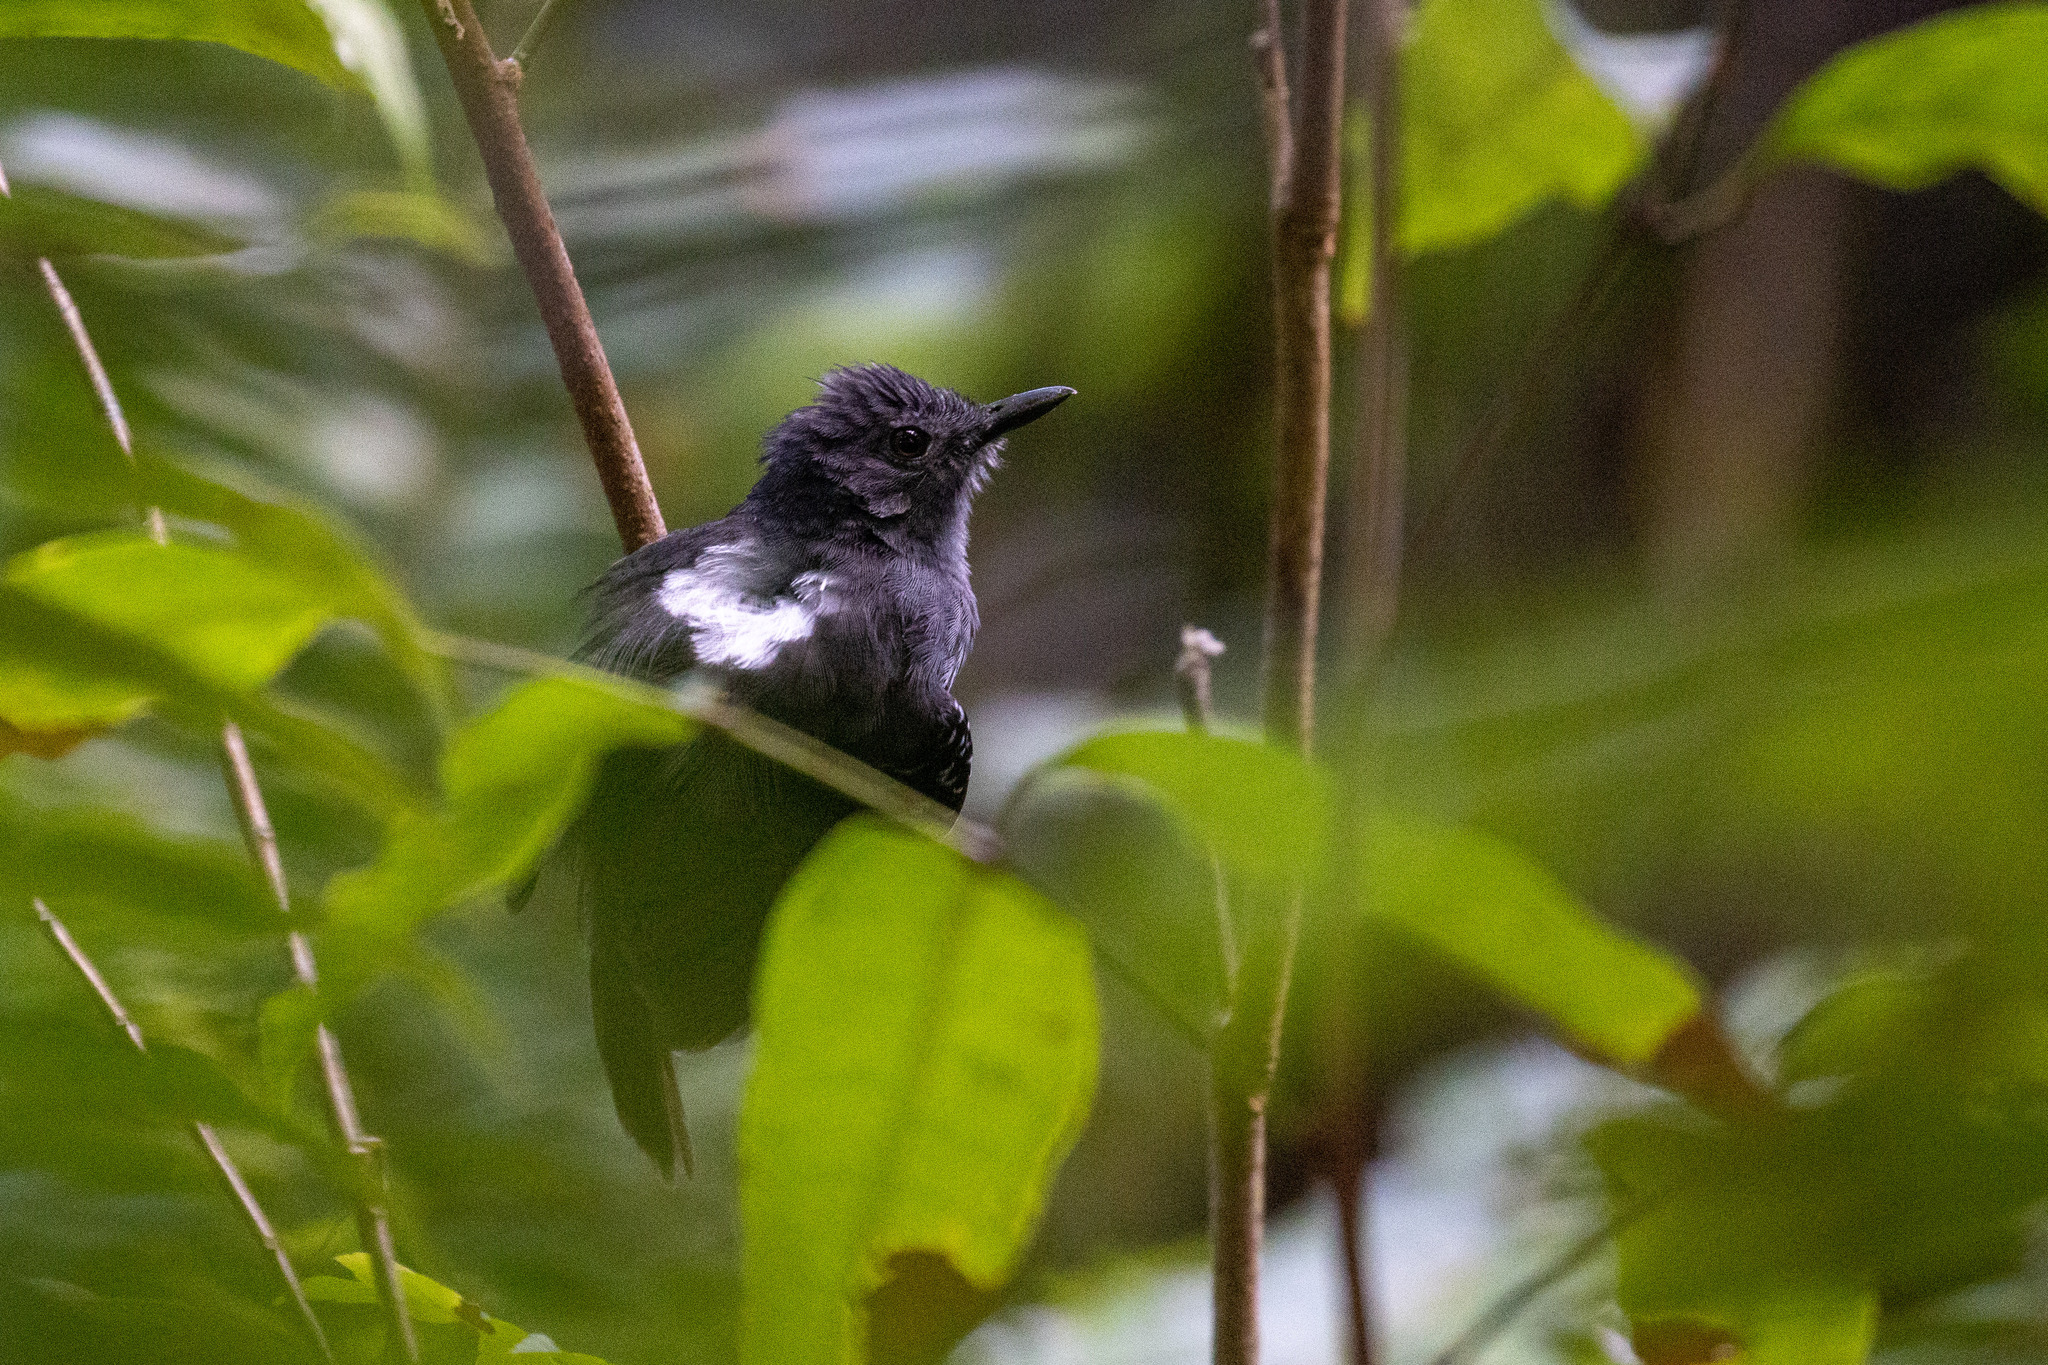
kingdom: Animalia
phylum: Chordata
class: Aves
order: Passeriformes
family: Thamnophilidae
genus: Cercomacra
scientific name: Cercomacra laeta
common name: Willis's antbird
